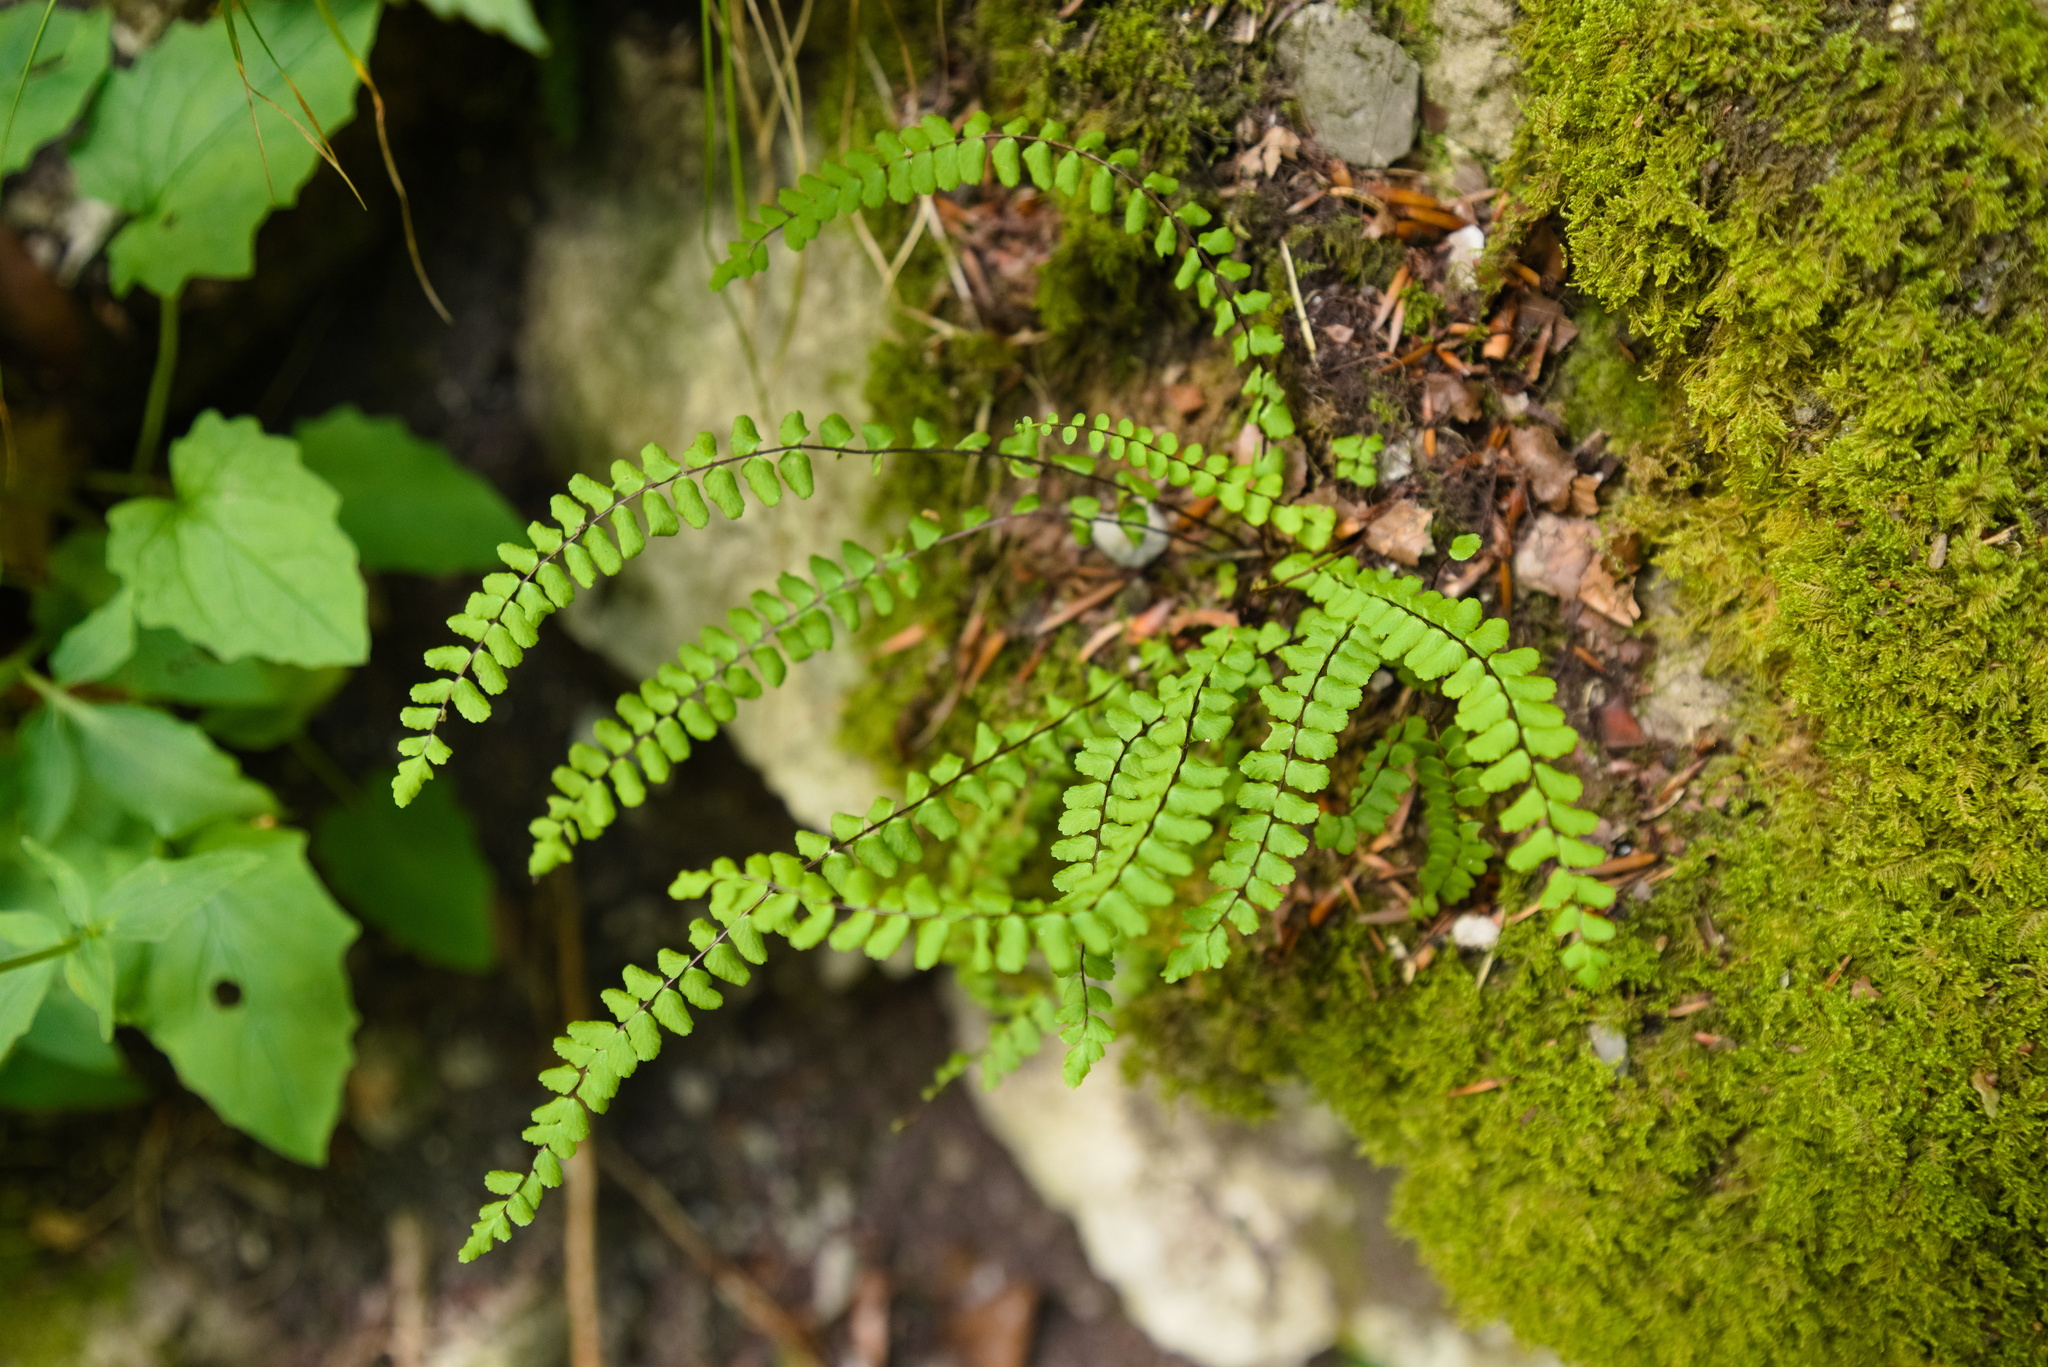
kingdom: Plantae
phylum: Tracheophyta
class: Polypodiopsida
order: Polypodiales
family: Aspleniaceae
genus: Asplenium
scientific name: Asplenium trichomanes
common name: Maidenhair spleenwort
